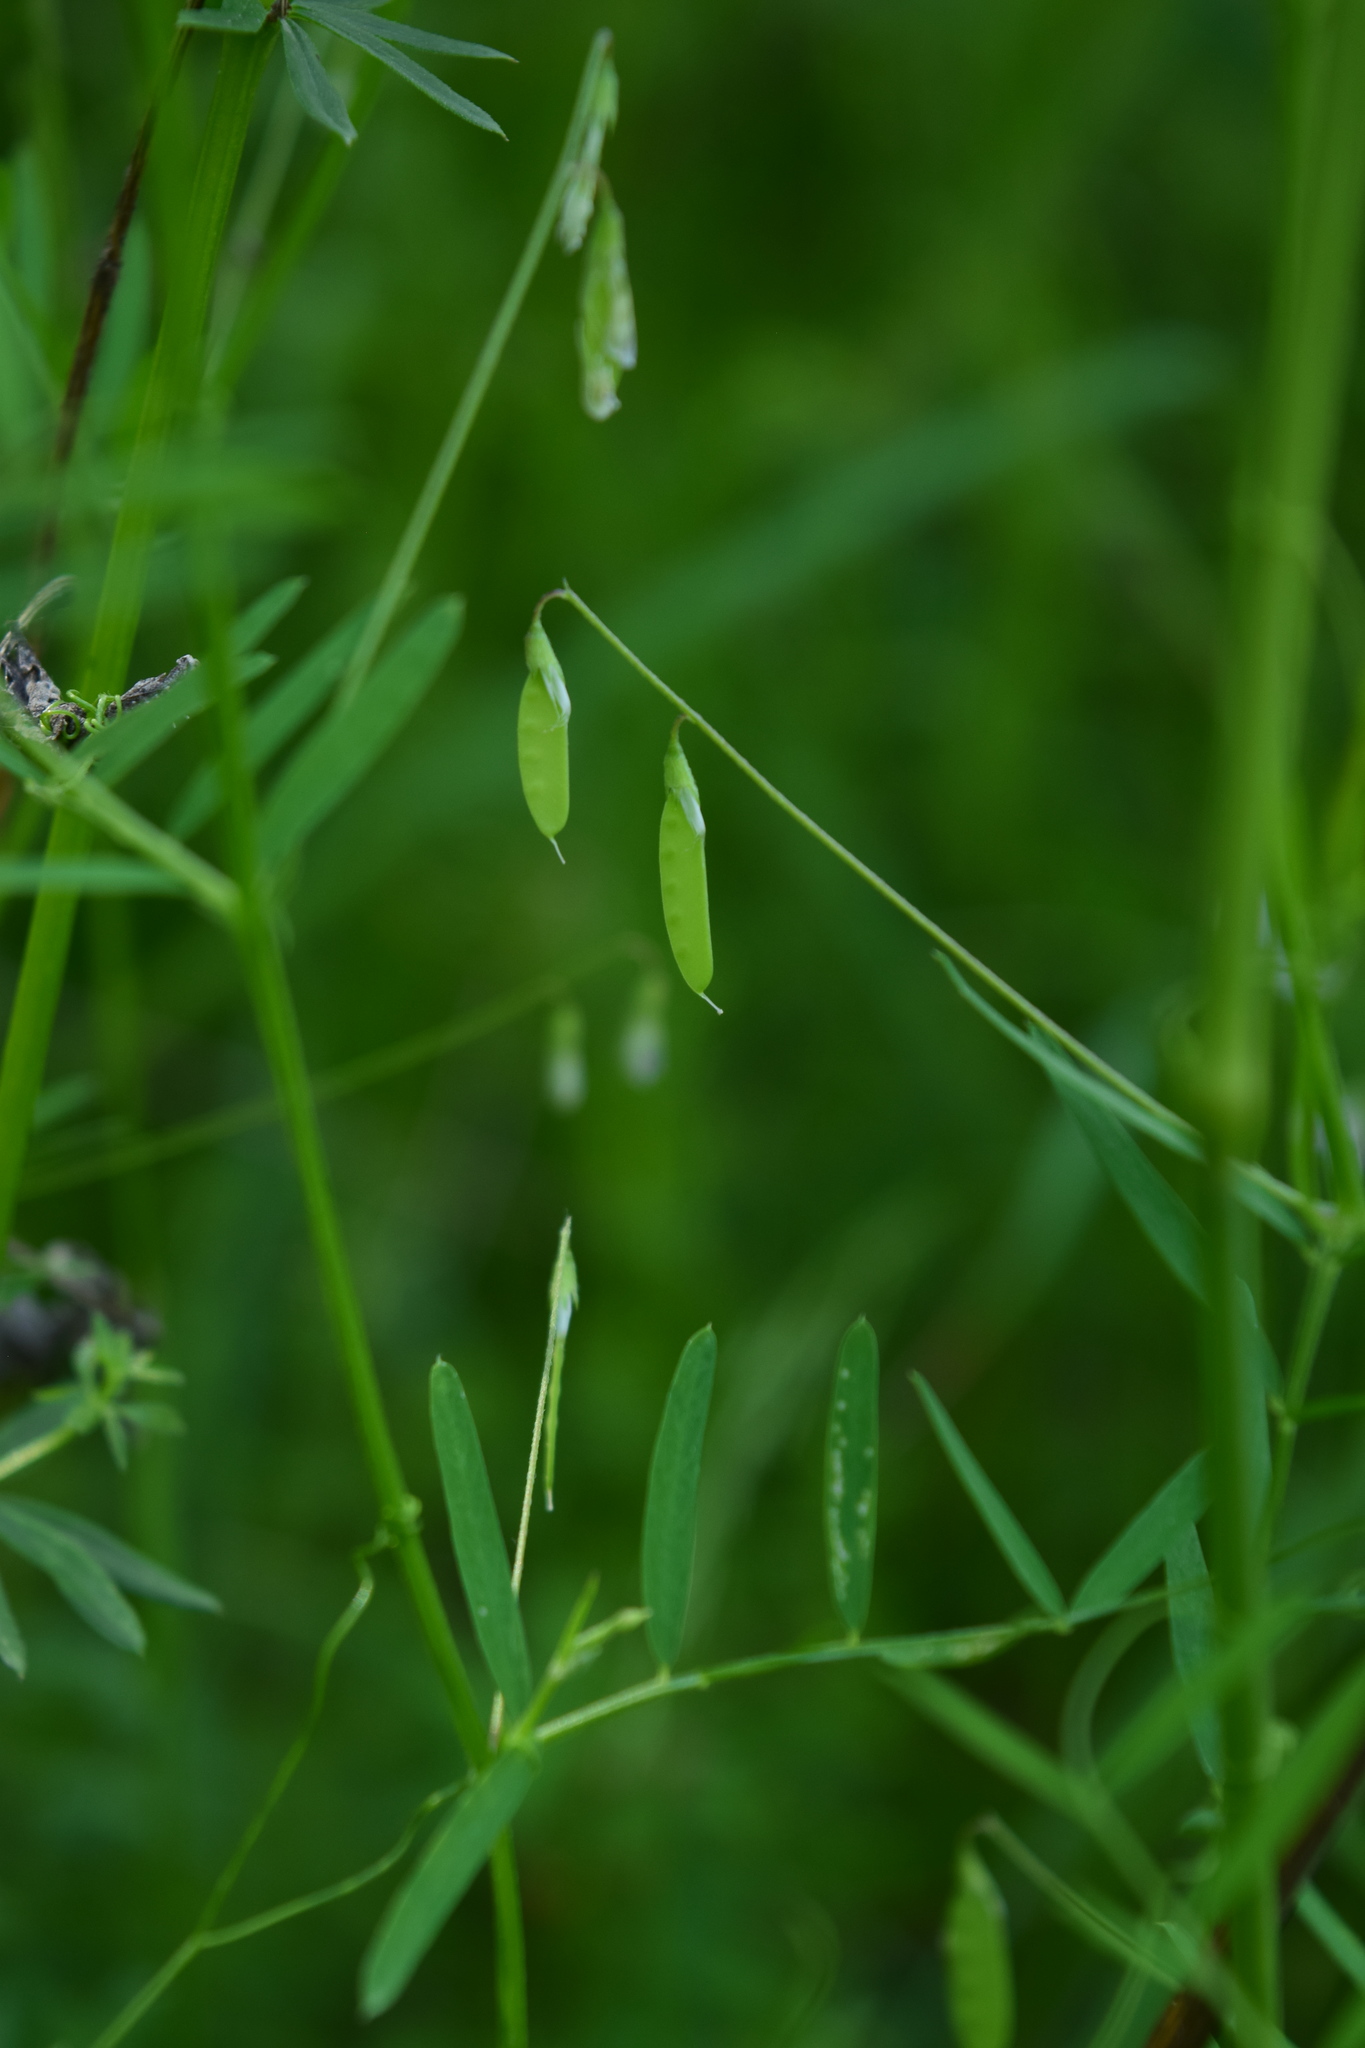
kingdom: Plantae
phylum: Tracheophyta
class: Magnoliopsida
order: Fabales
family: Fabaceae
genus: Vicia
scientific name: Vicia tetrasperma
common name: Smooth tare
